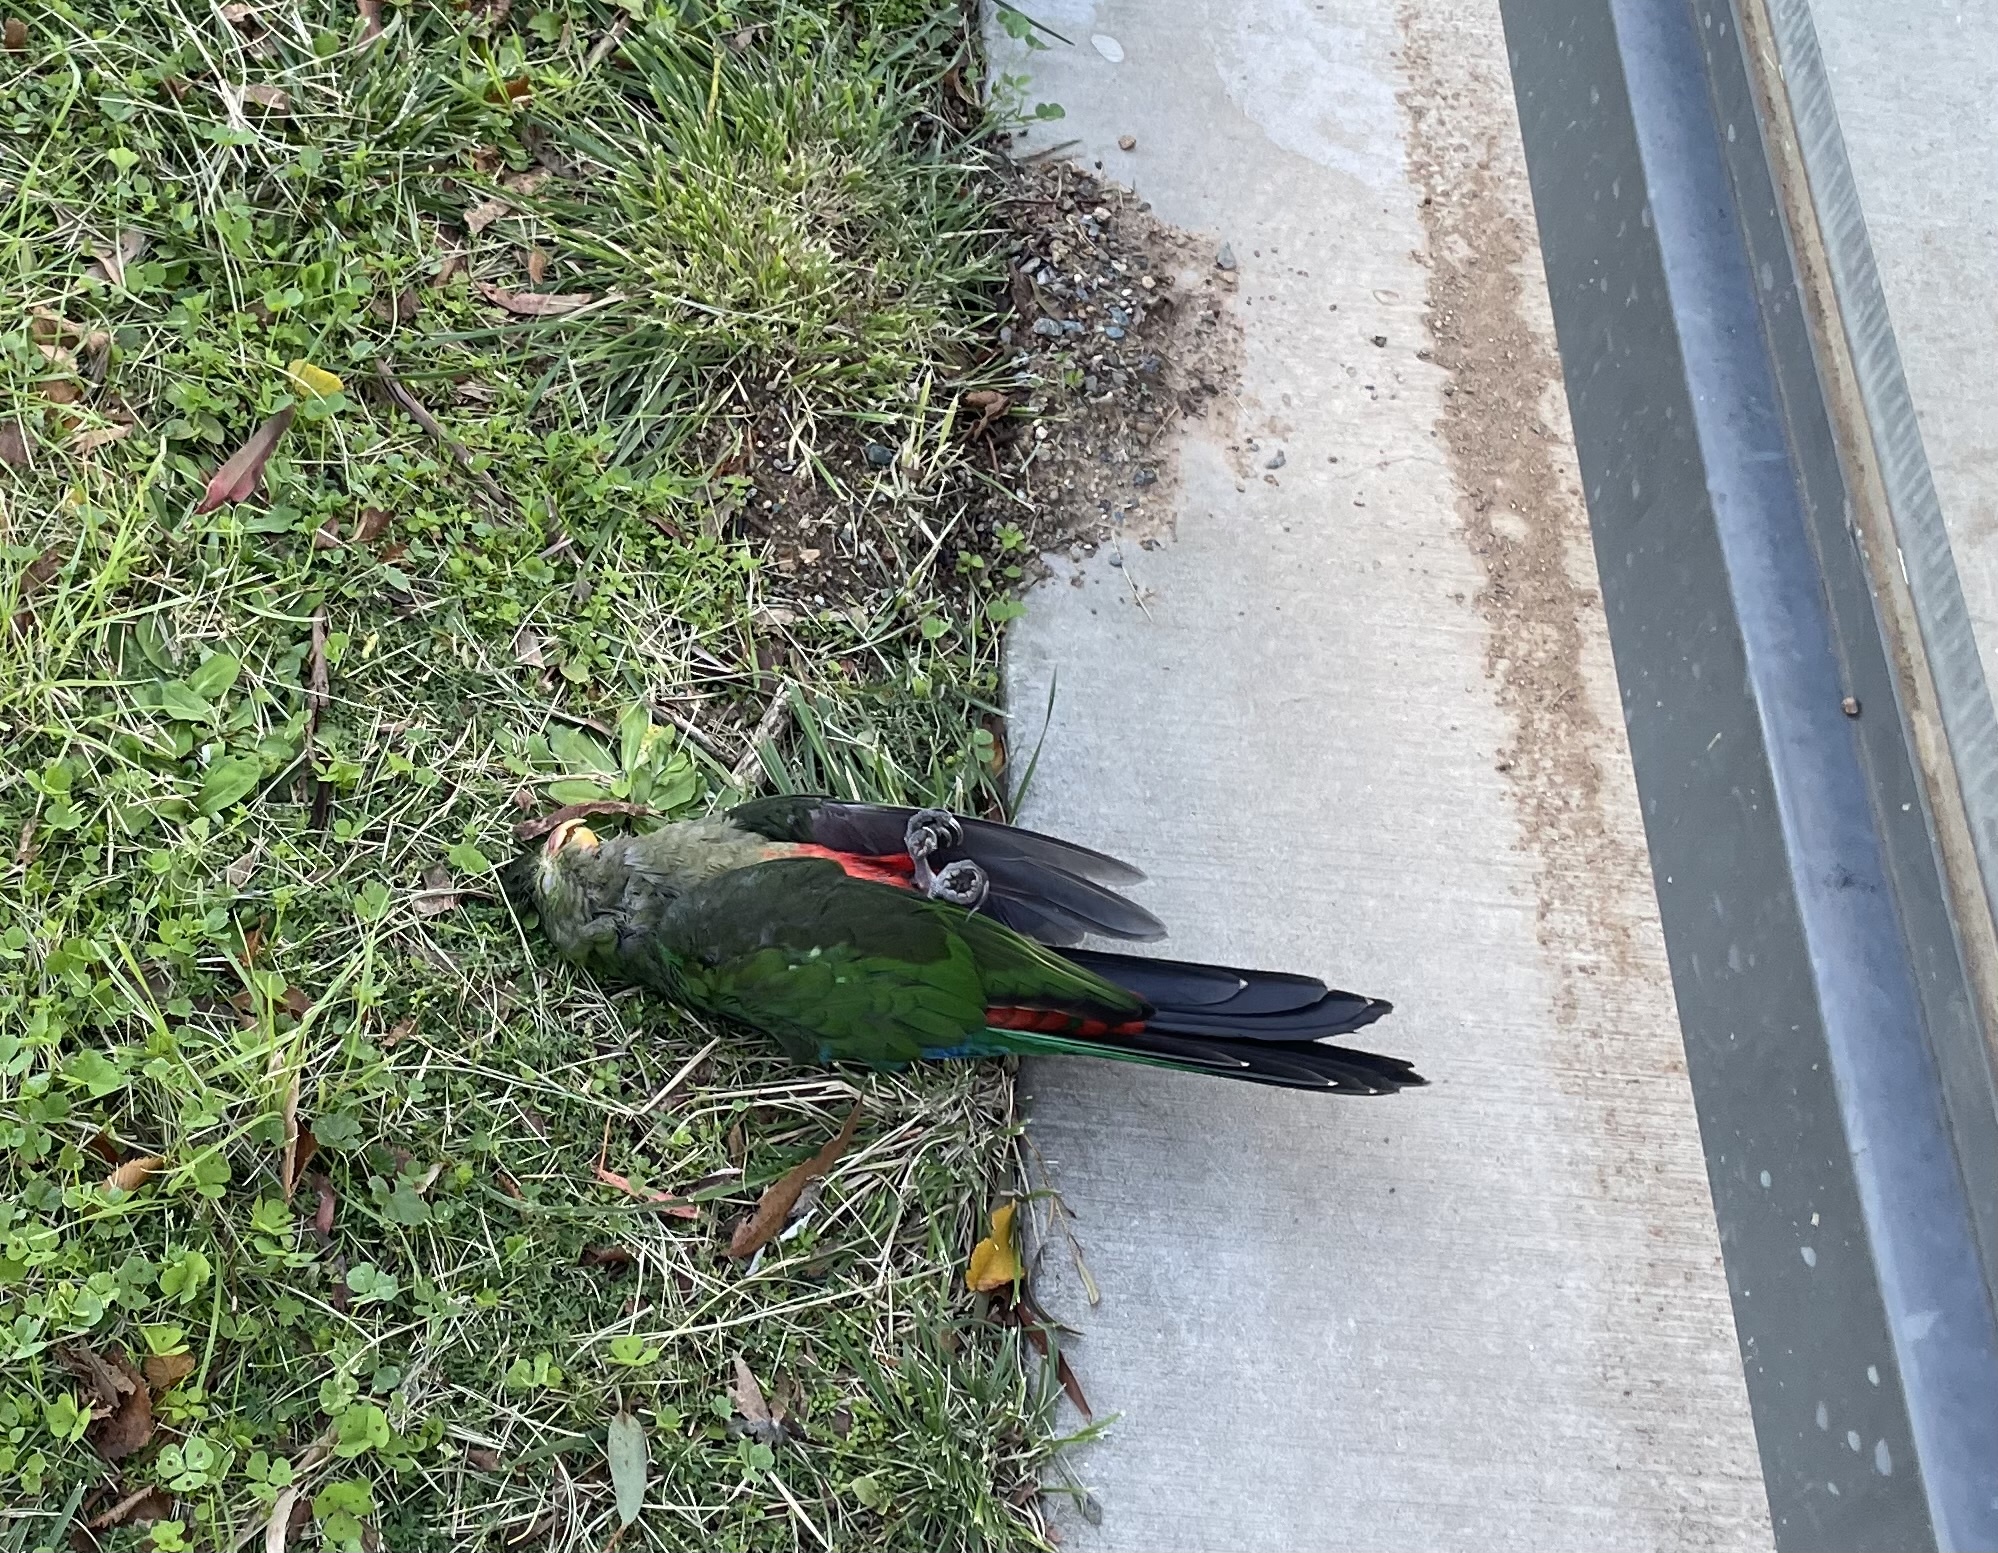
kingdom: Animalia
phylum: Chordata
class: Aves
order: Psittaciformes
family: Psittacidae
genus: Alisterus
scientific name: Alisterus scapularis
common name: Australian king parrot
